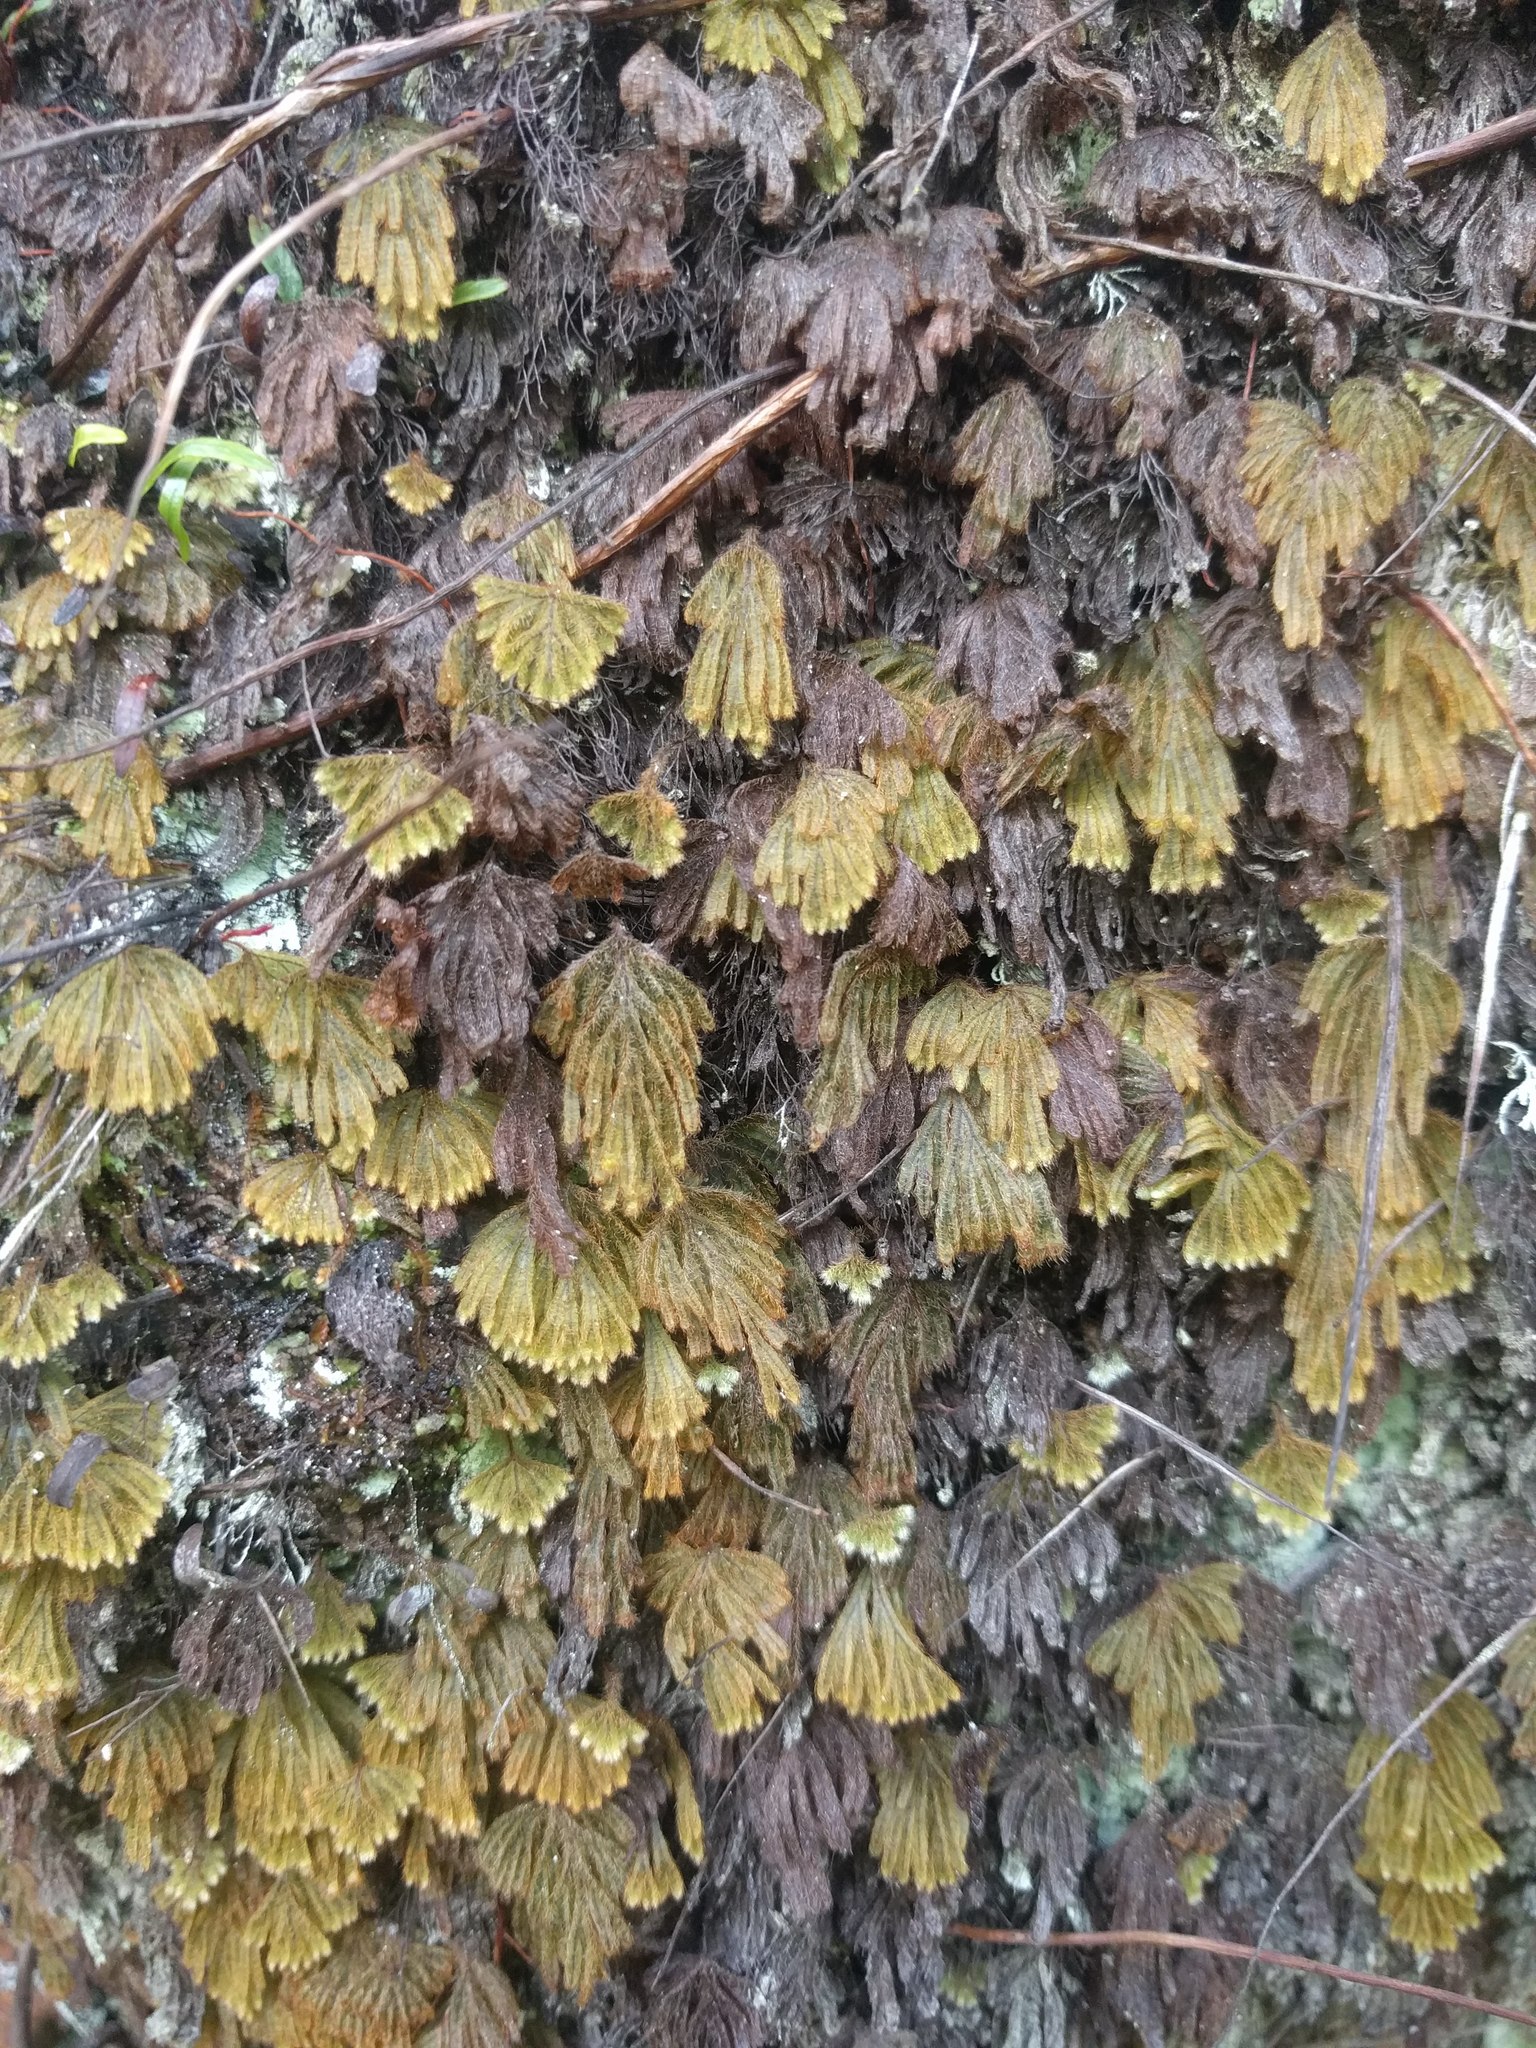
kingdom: Plantae
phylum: Tracheophyta
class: Polypodiopsida
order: Hymenophyllales
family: Hymenophyllaceae
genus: Hymenophyllum
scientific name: Hymenophyllum obtusum
